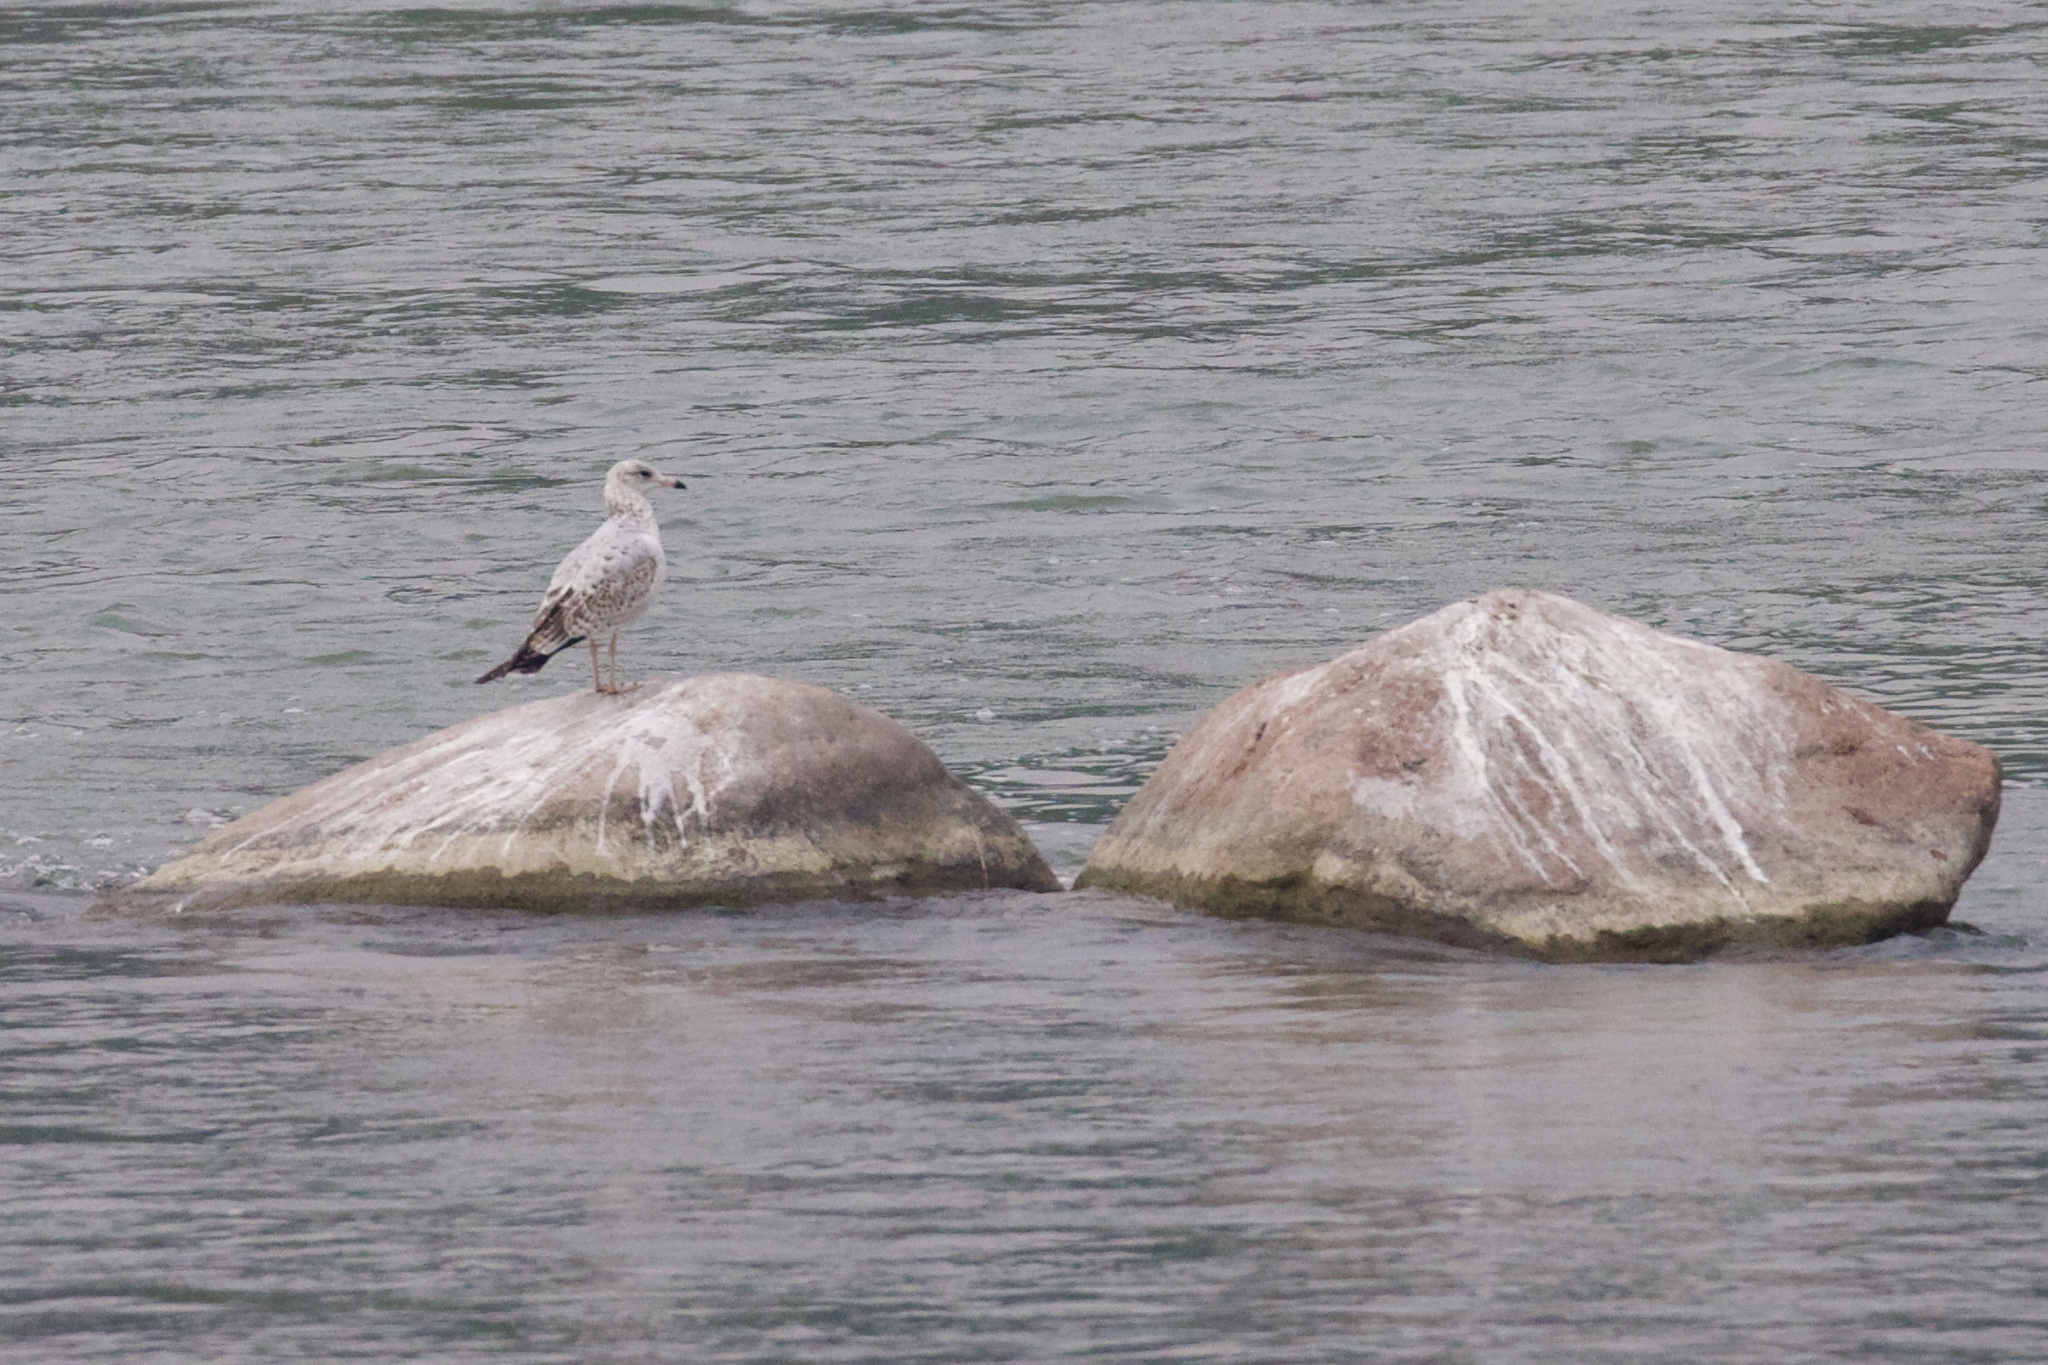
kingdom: Animalia
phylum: Chordata
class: Aves
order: Charadriiformes
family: Laridae
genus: Larus
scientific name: Larus delawarensis
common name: Ring-billed gull
